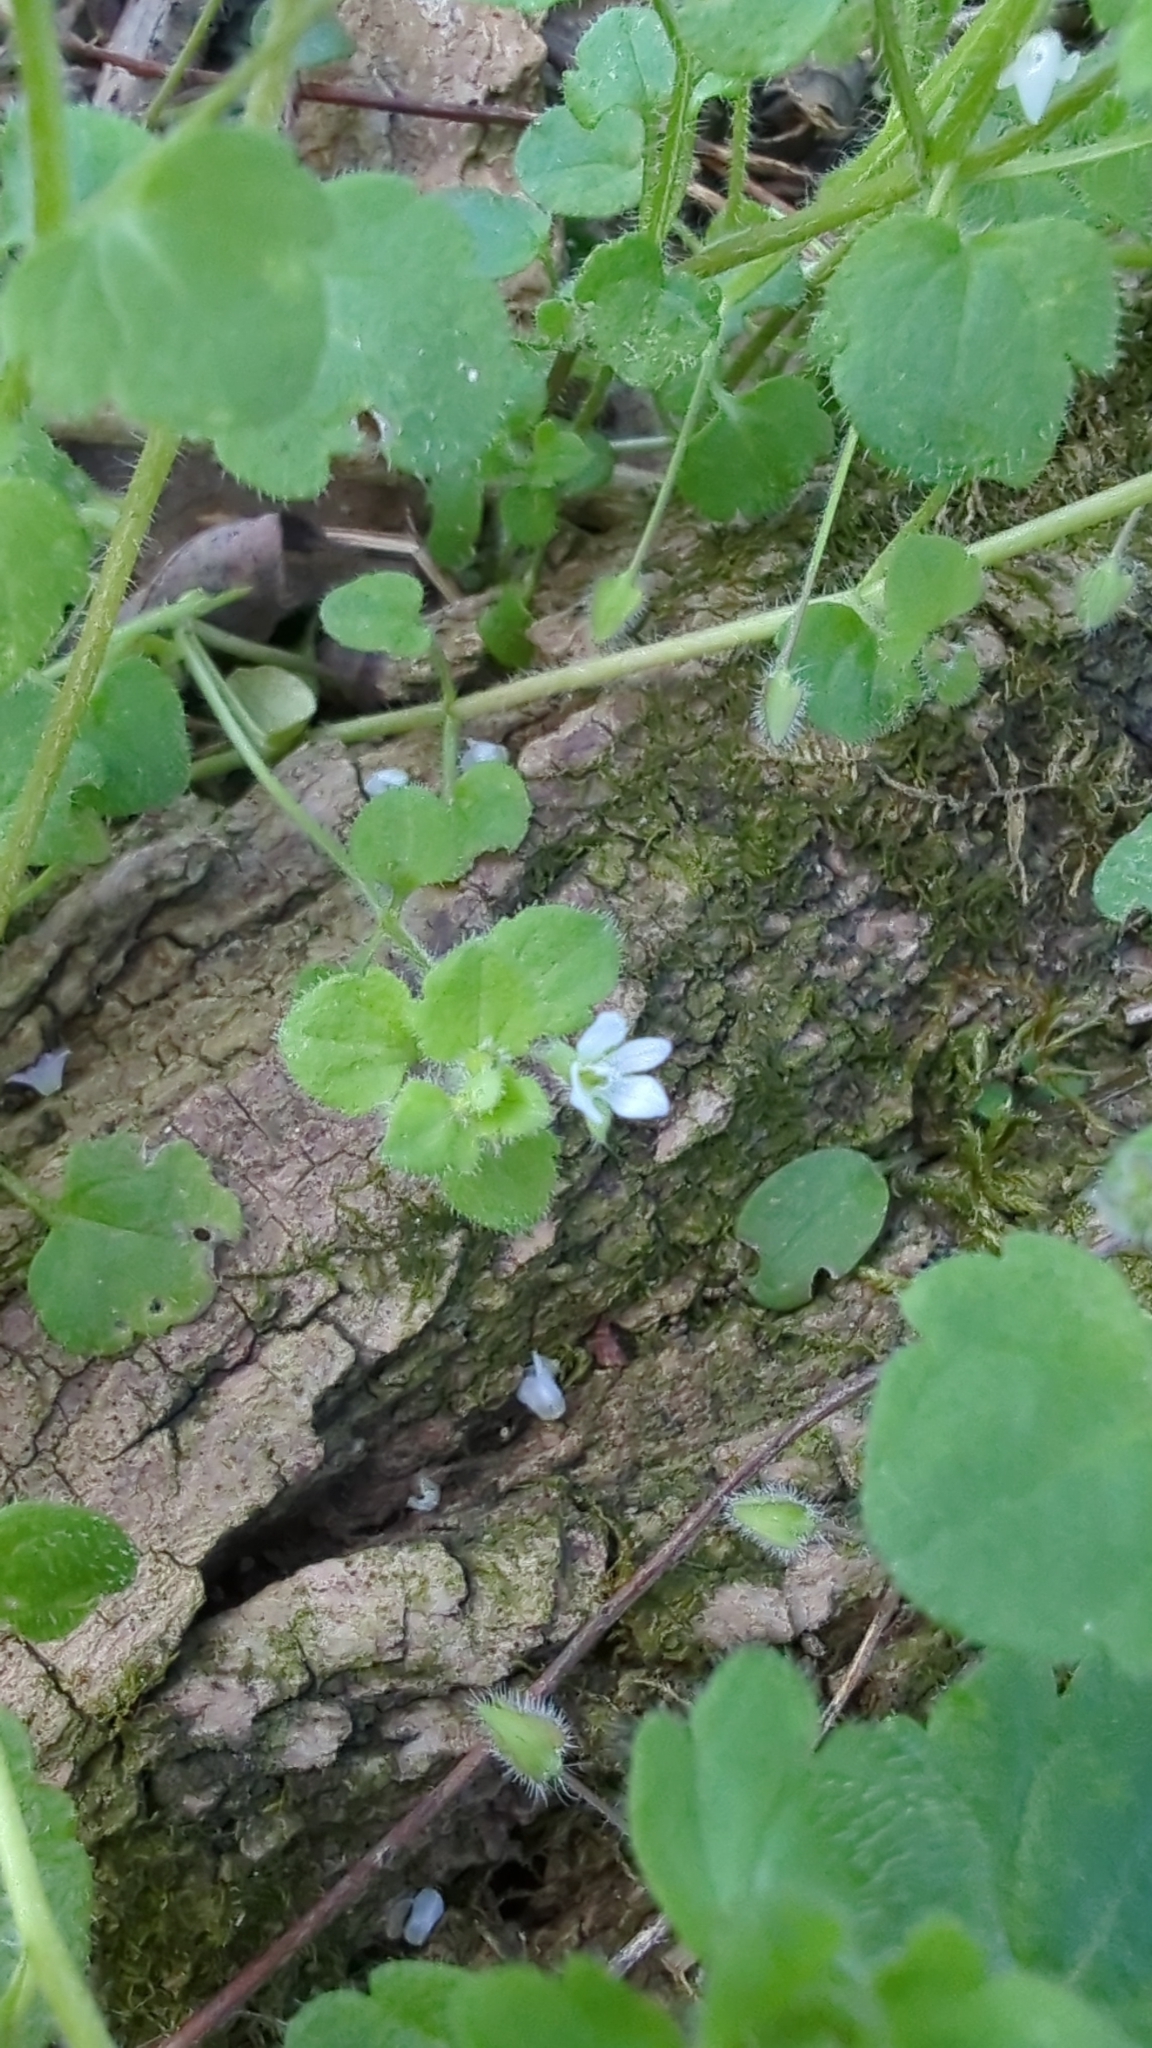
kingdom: Plantae
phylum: Tracheophyta
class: Magnoliopsida
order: Lamiales
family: Plantaginaceae
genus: Veronica
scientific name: Veronica sublobata
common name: False ivy-leaved speedwell
